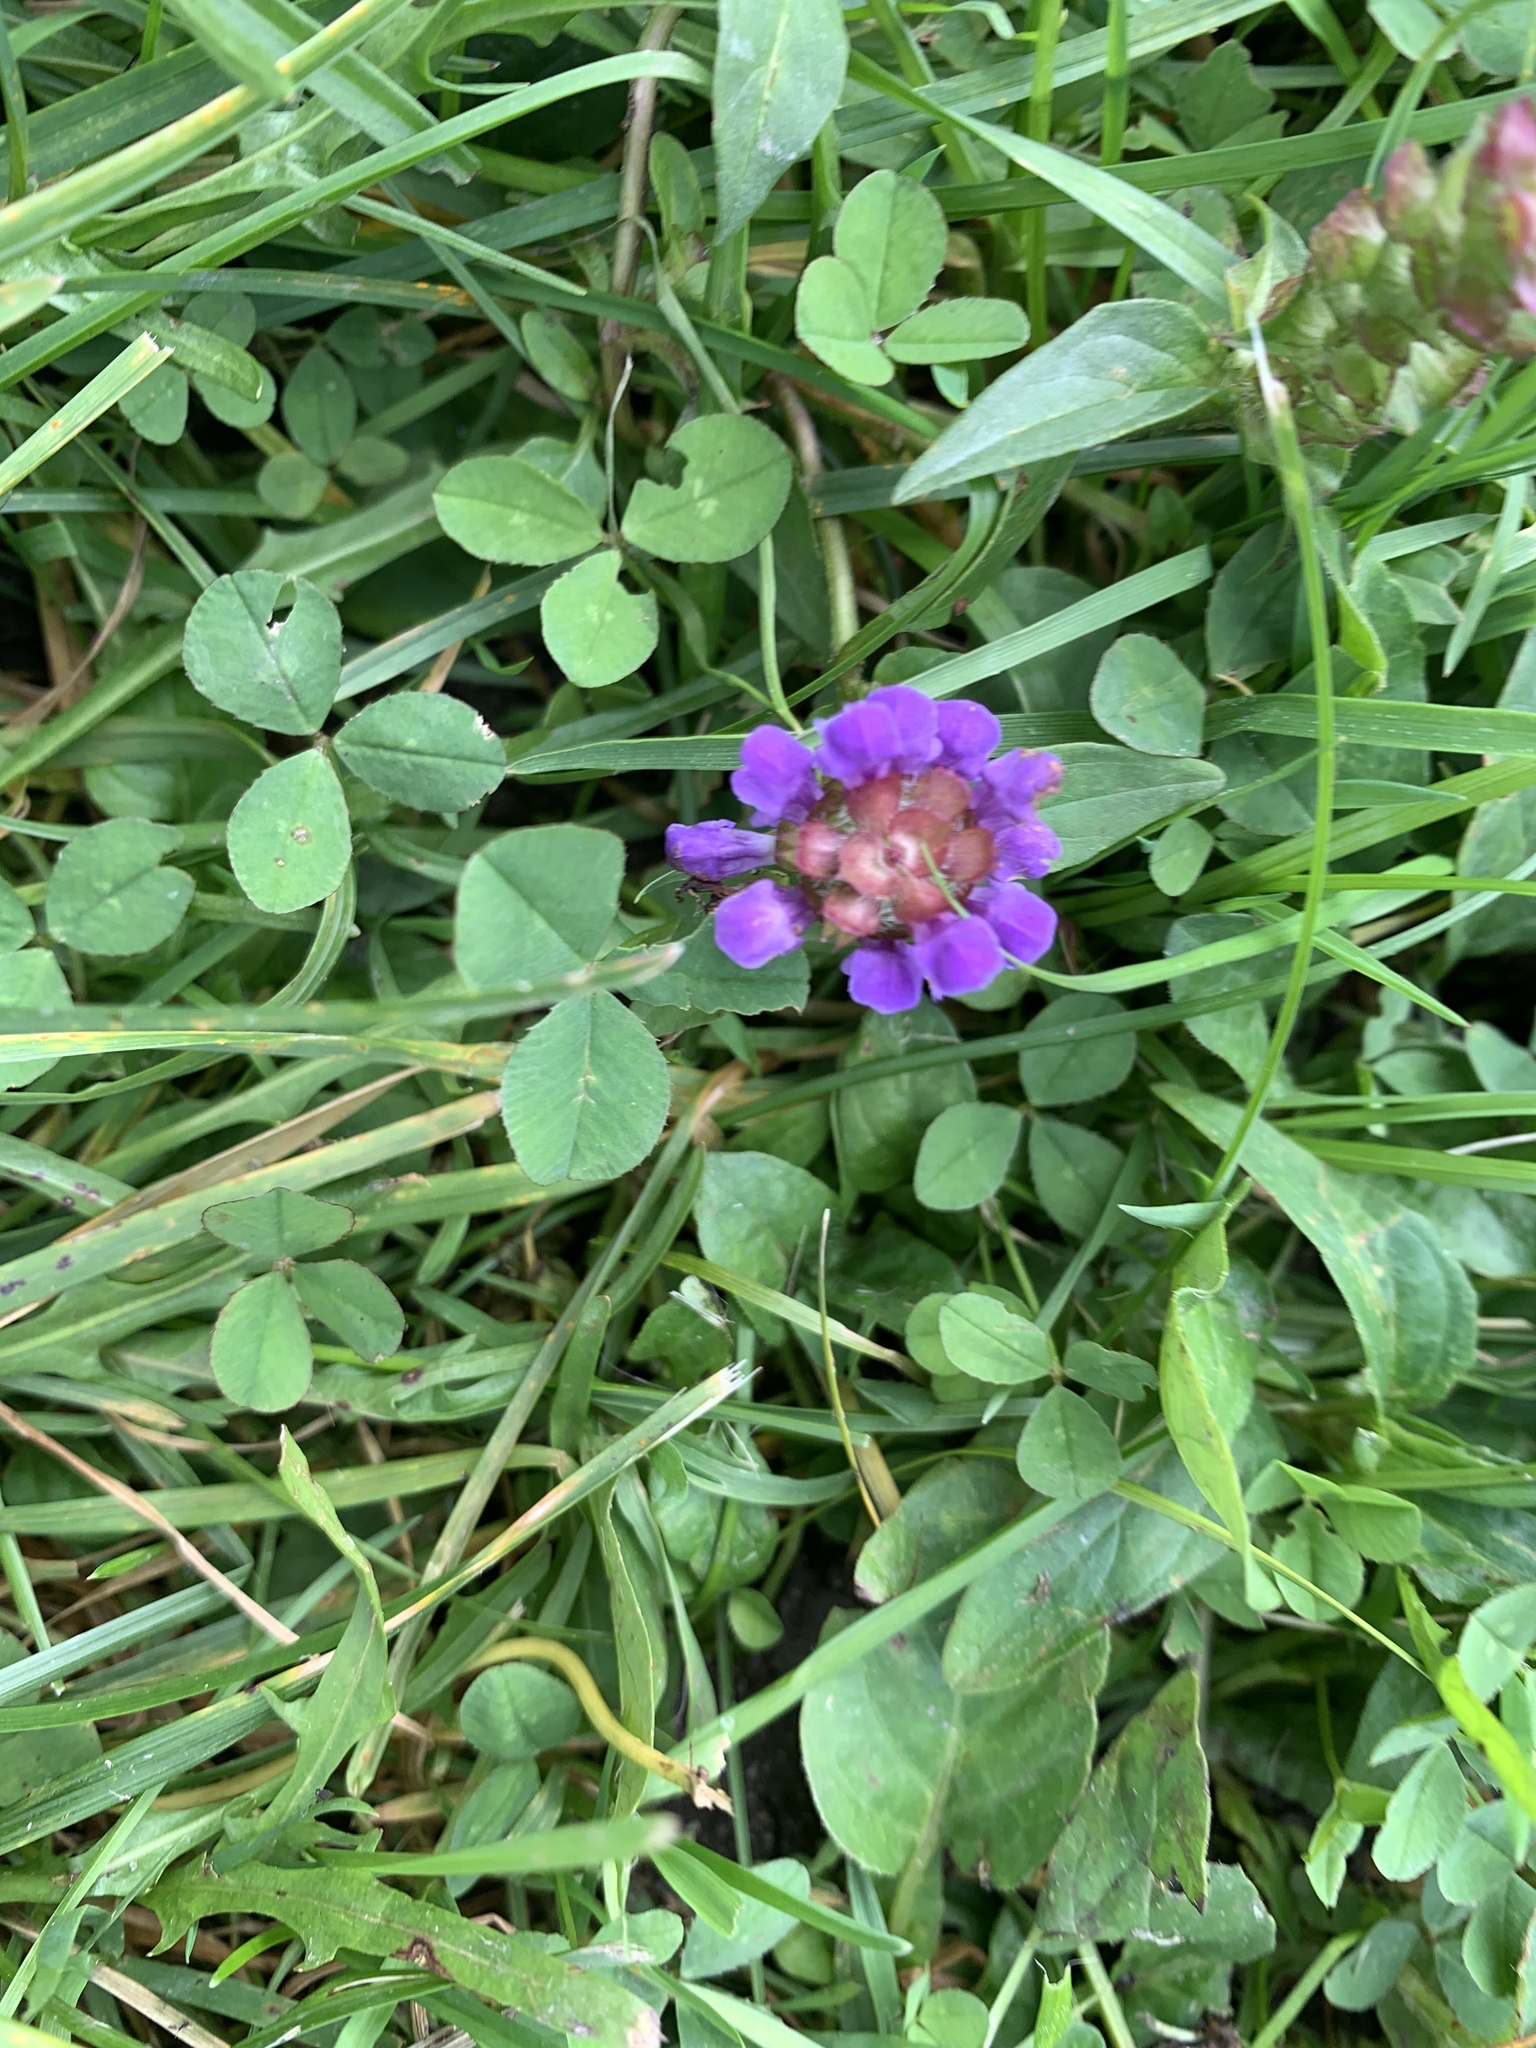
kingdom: Plantae
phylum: Tracheophyta
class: Magnoliopsida
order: Lamiales
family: Lamiaceae
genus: Prunella
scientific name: Prunella vulgaris
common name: Heal-all
